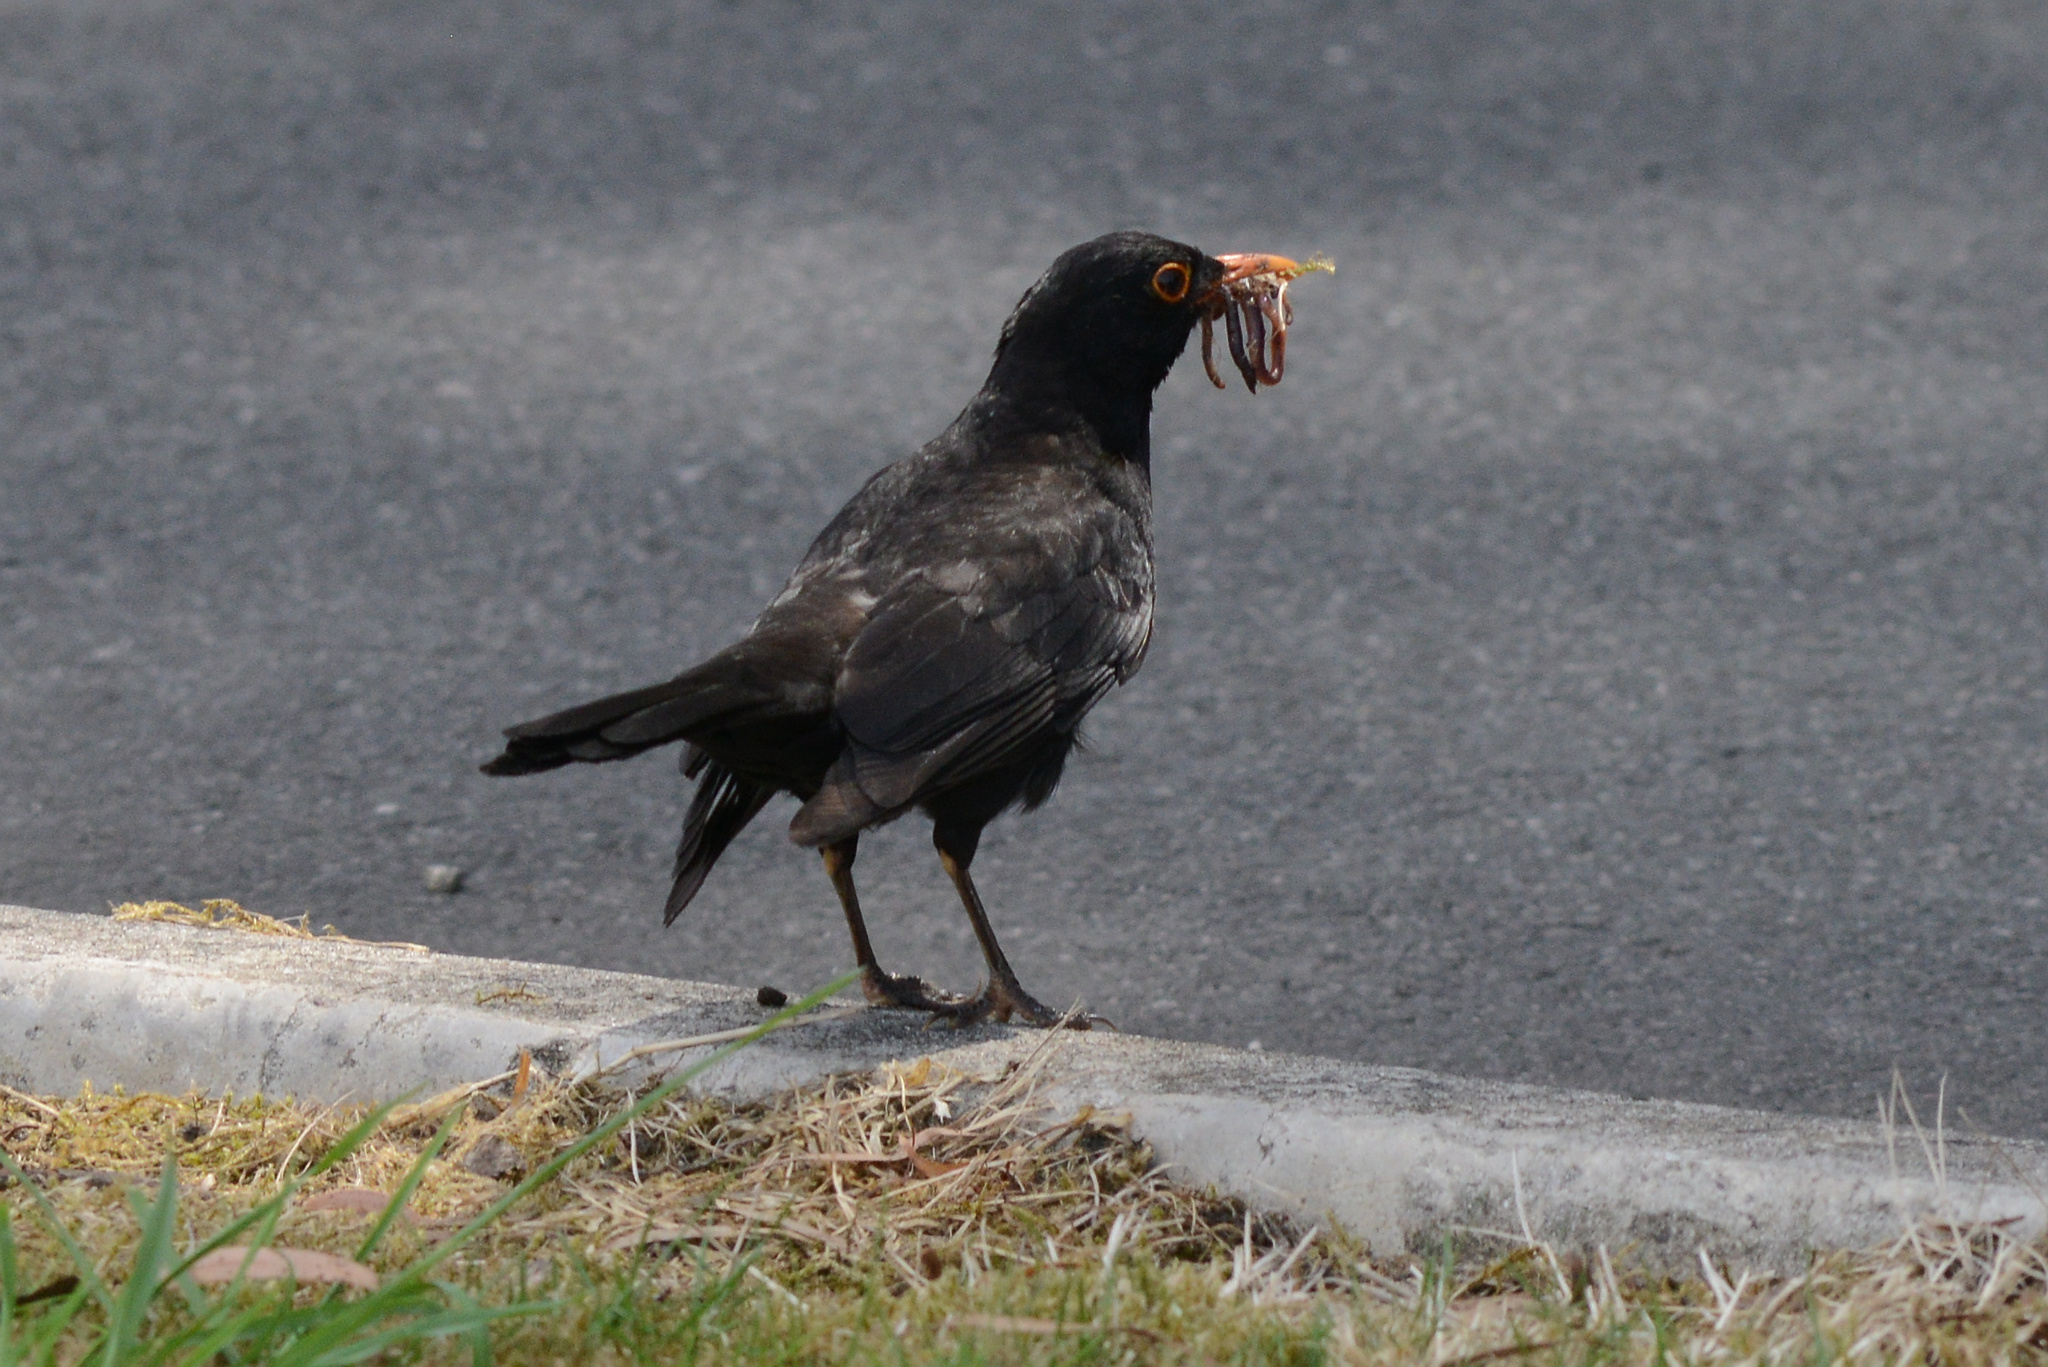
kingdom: Animalia
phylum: Chordata
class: Aves
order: Passeriformes
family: Turdidae
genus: Turdus
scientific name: Turdus merula
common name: Common blackbird
